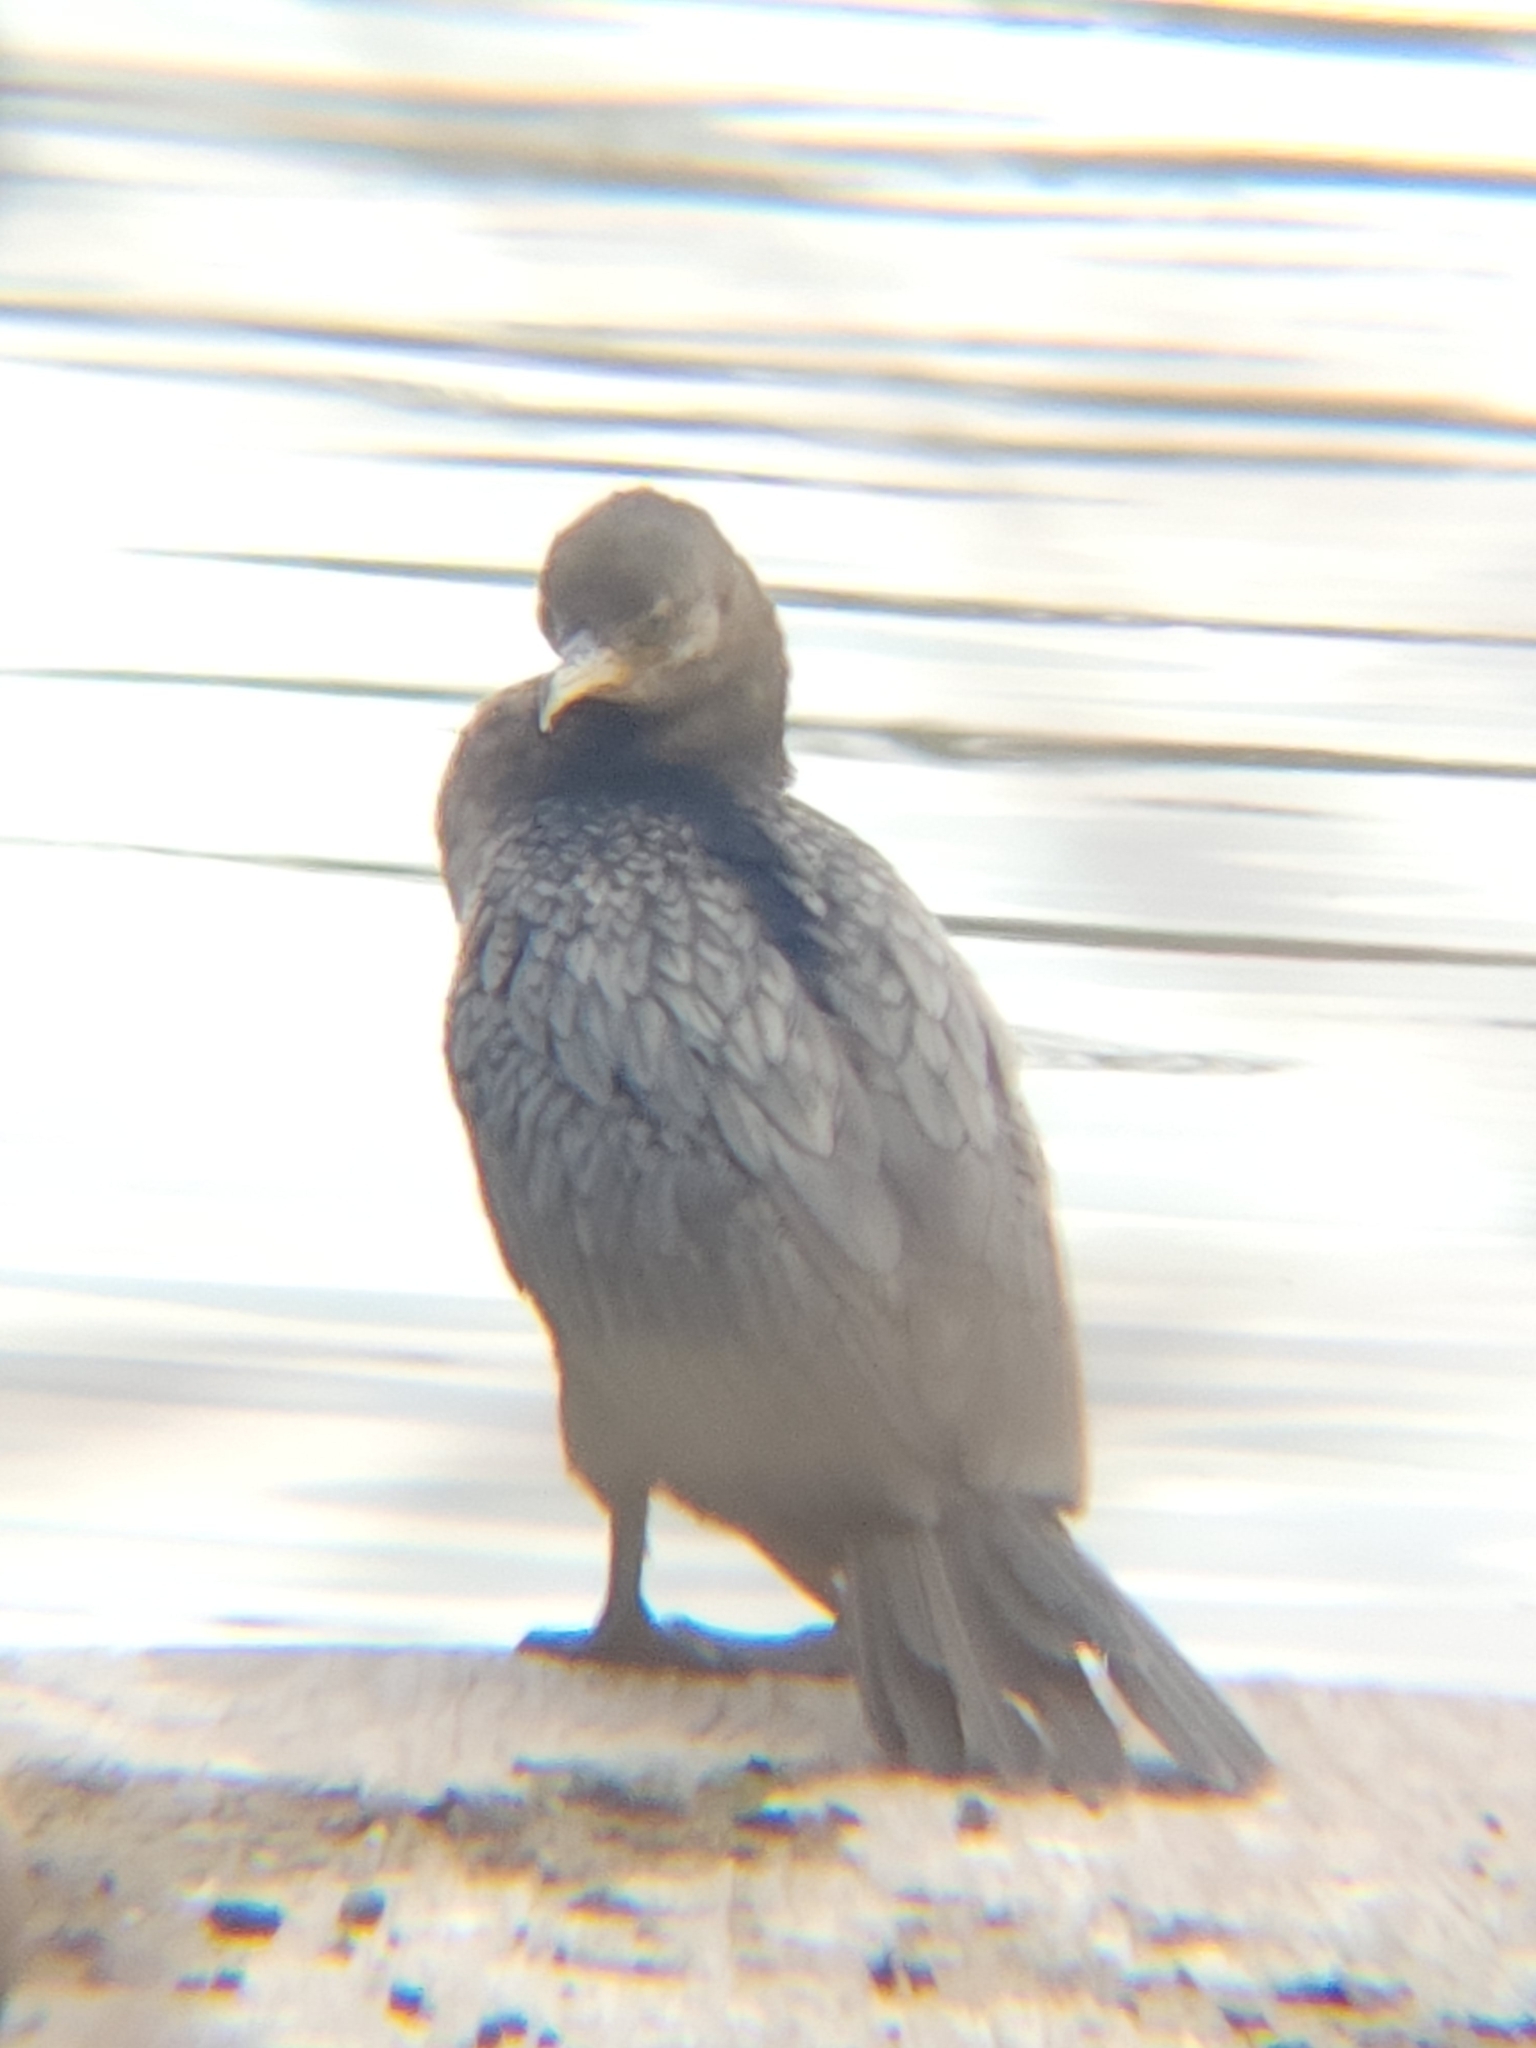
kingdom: Animalia
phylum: Chordata
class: Aves
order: Suliformes
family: Phalacrocoracidae
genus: Phalacrocorax
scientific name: Phalacrocorax brasilianus
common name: Neotropic cormorant
